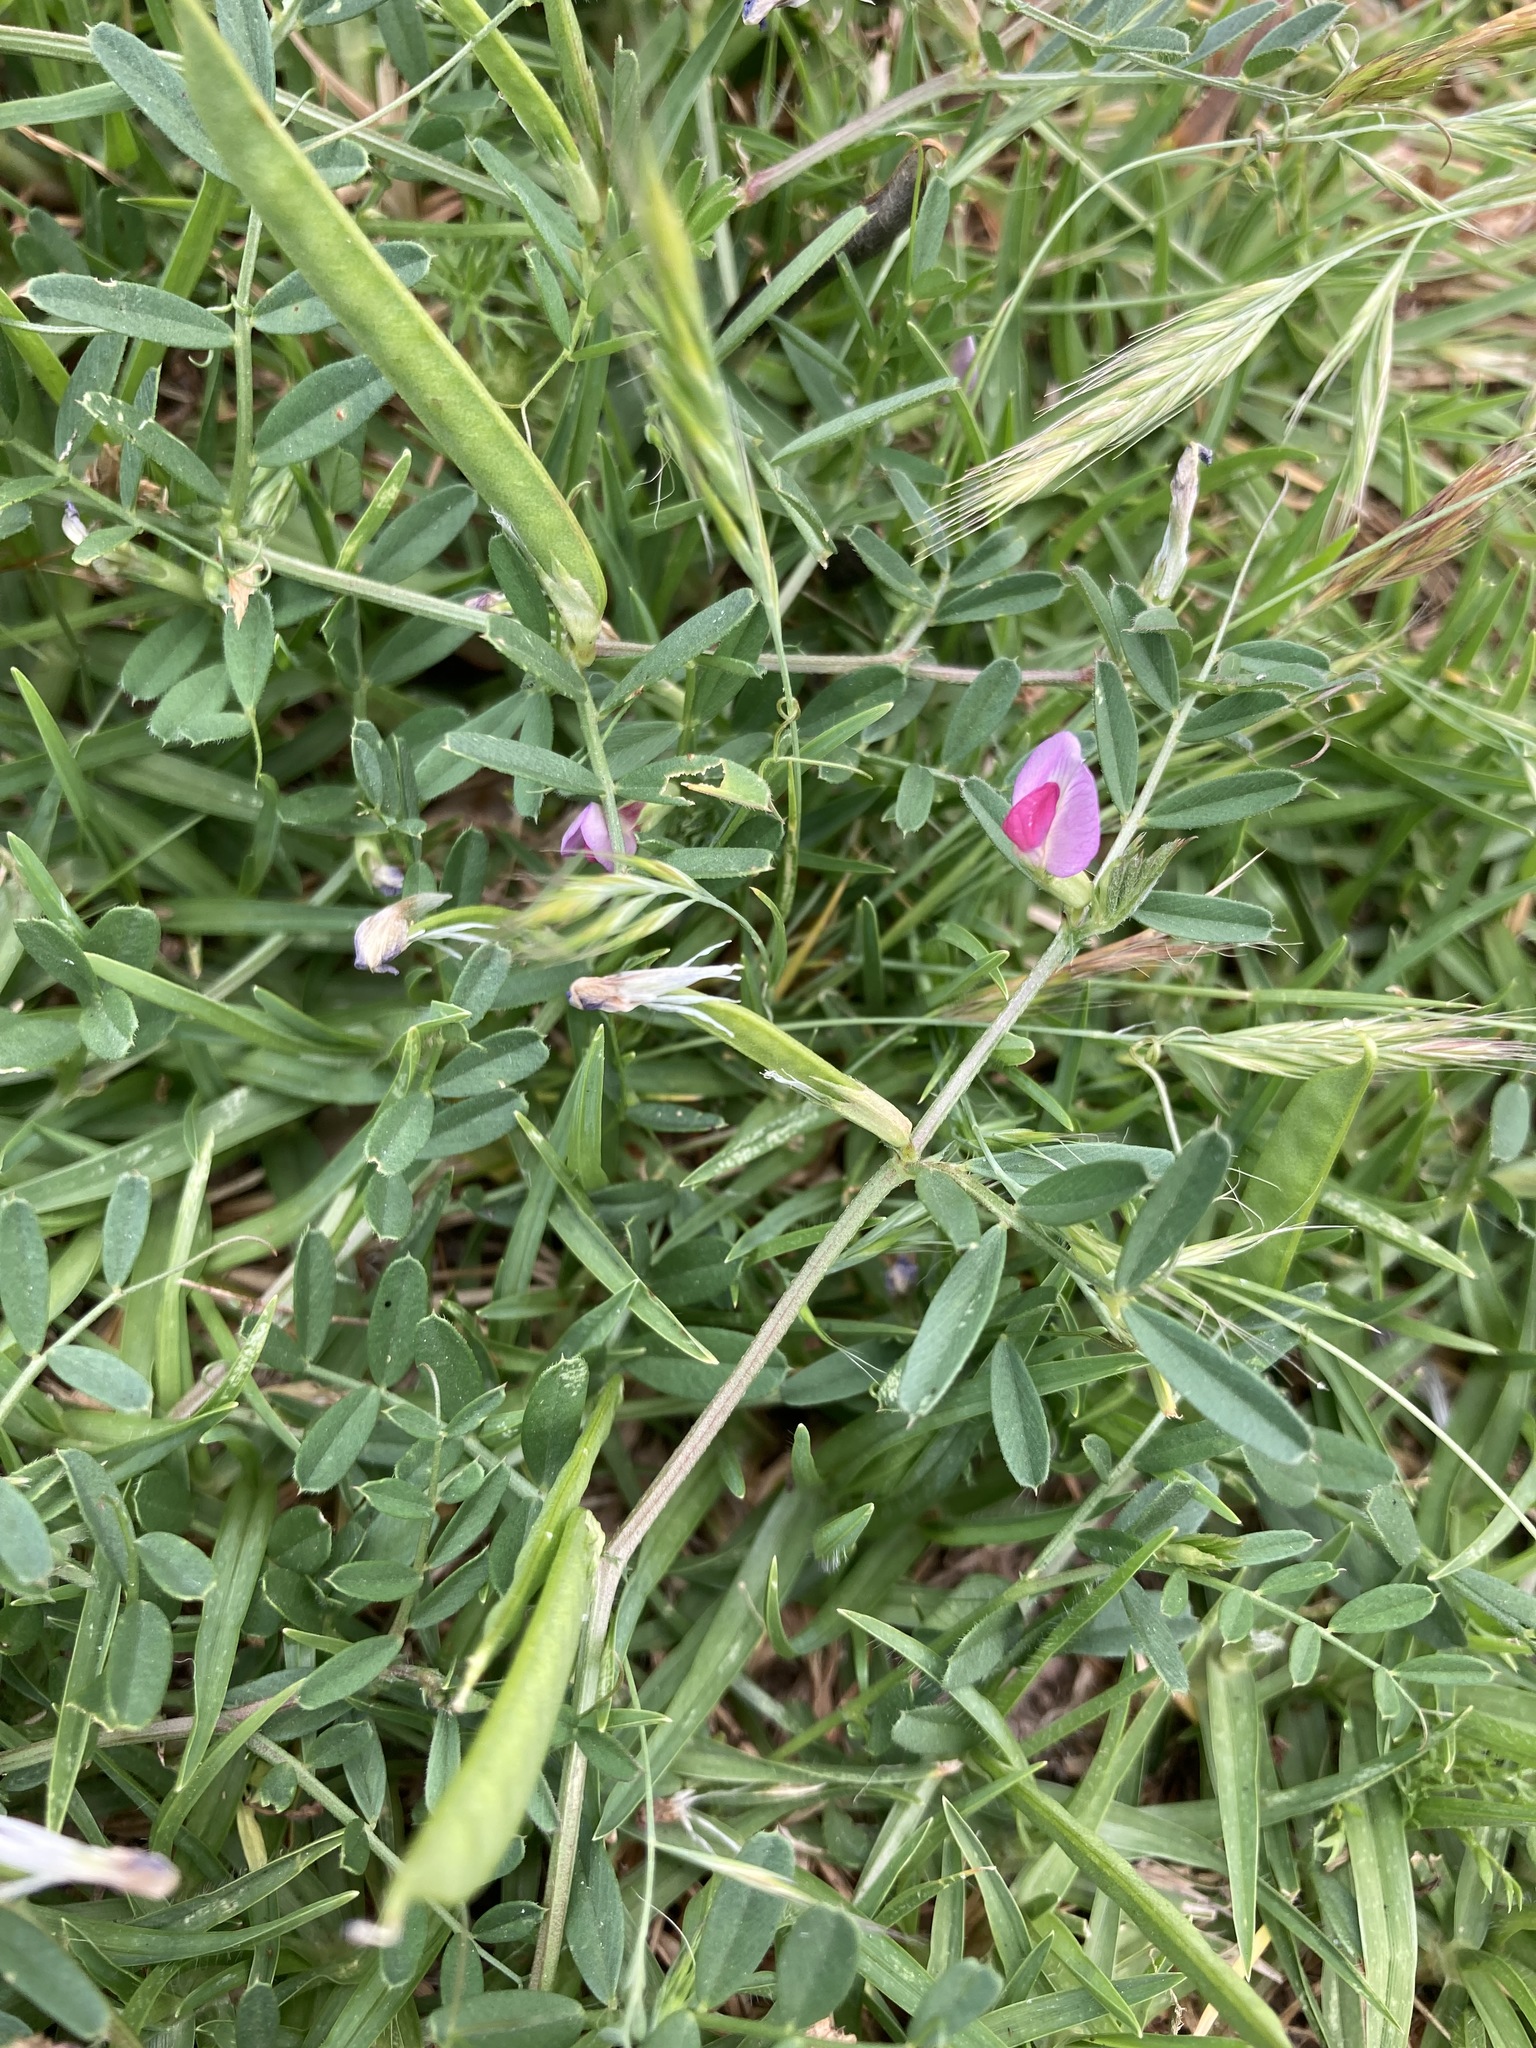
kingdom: Plantae
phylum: Tracheophyta
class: Magnoliopsida
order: Fabales
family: Fabaceae
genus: Vicia
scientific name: Vicia sativa
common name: Garden vetch
